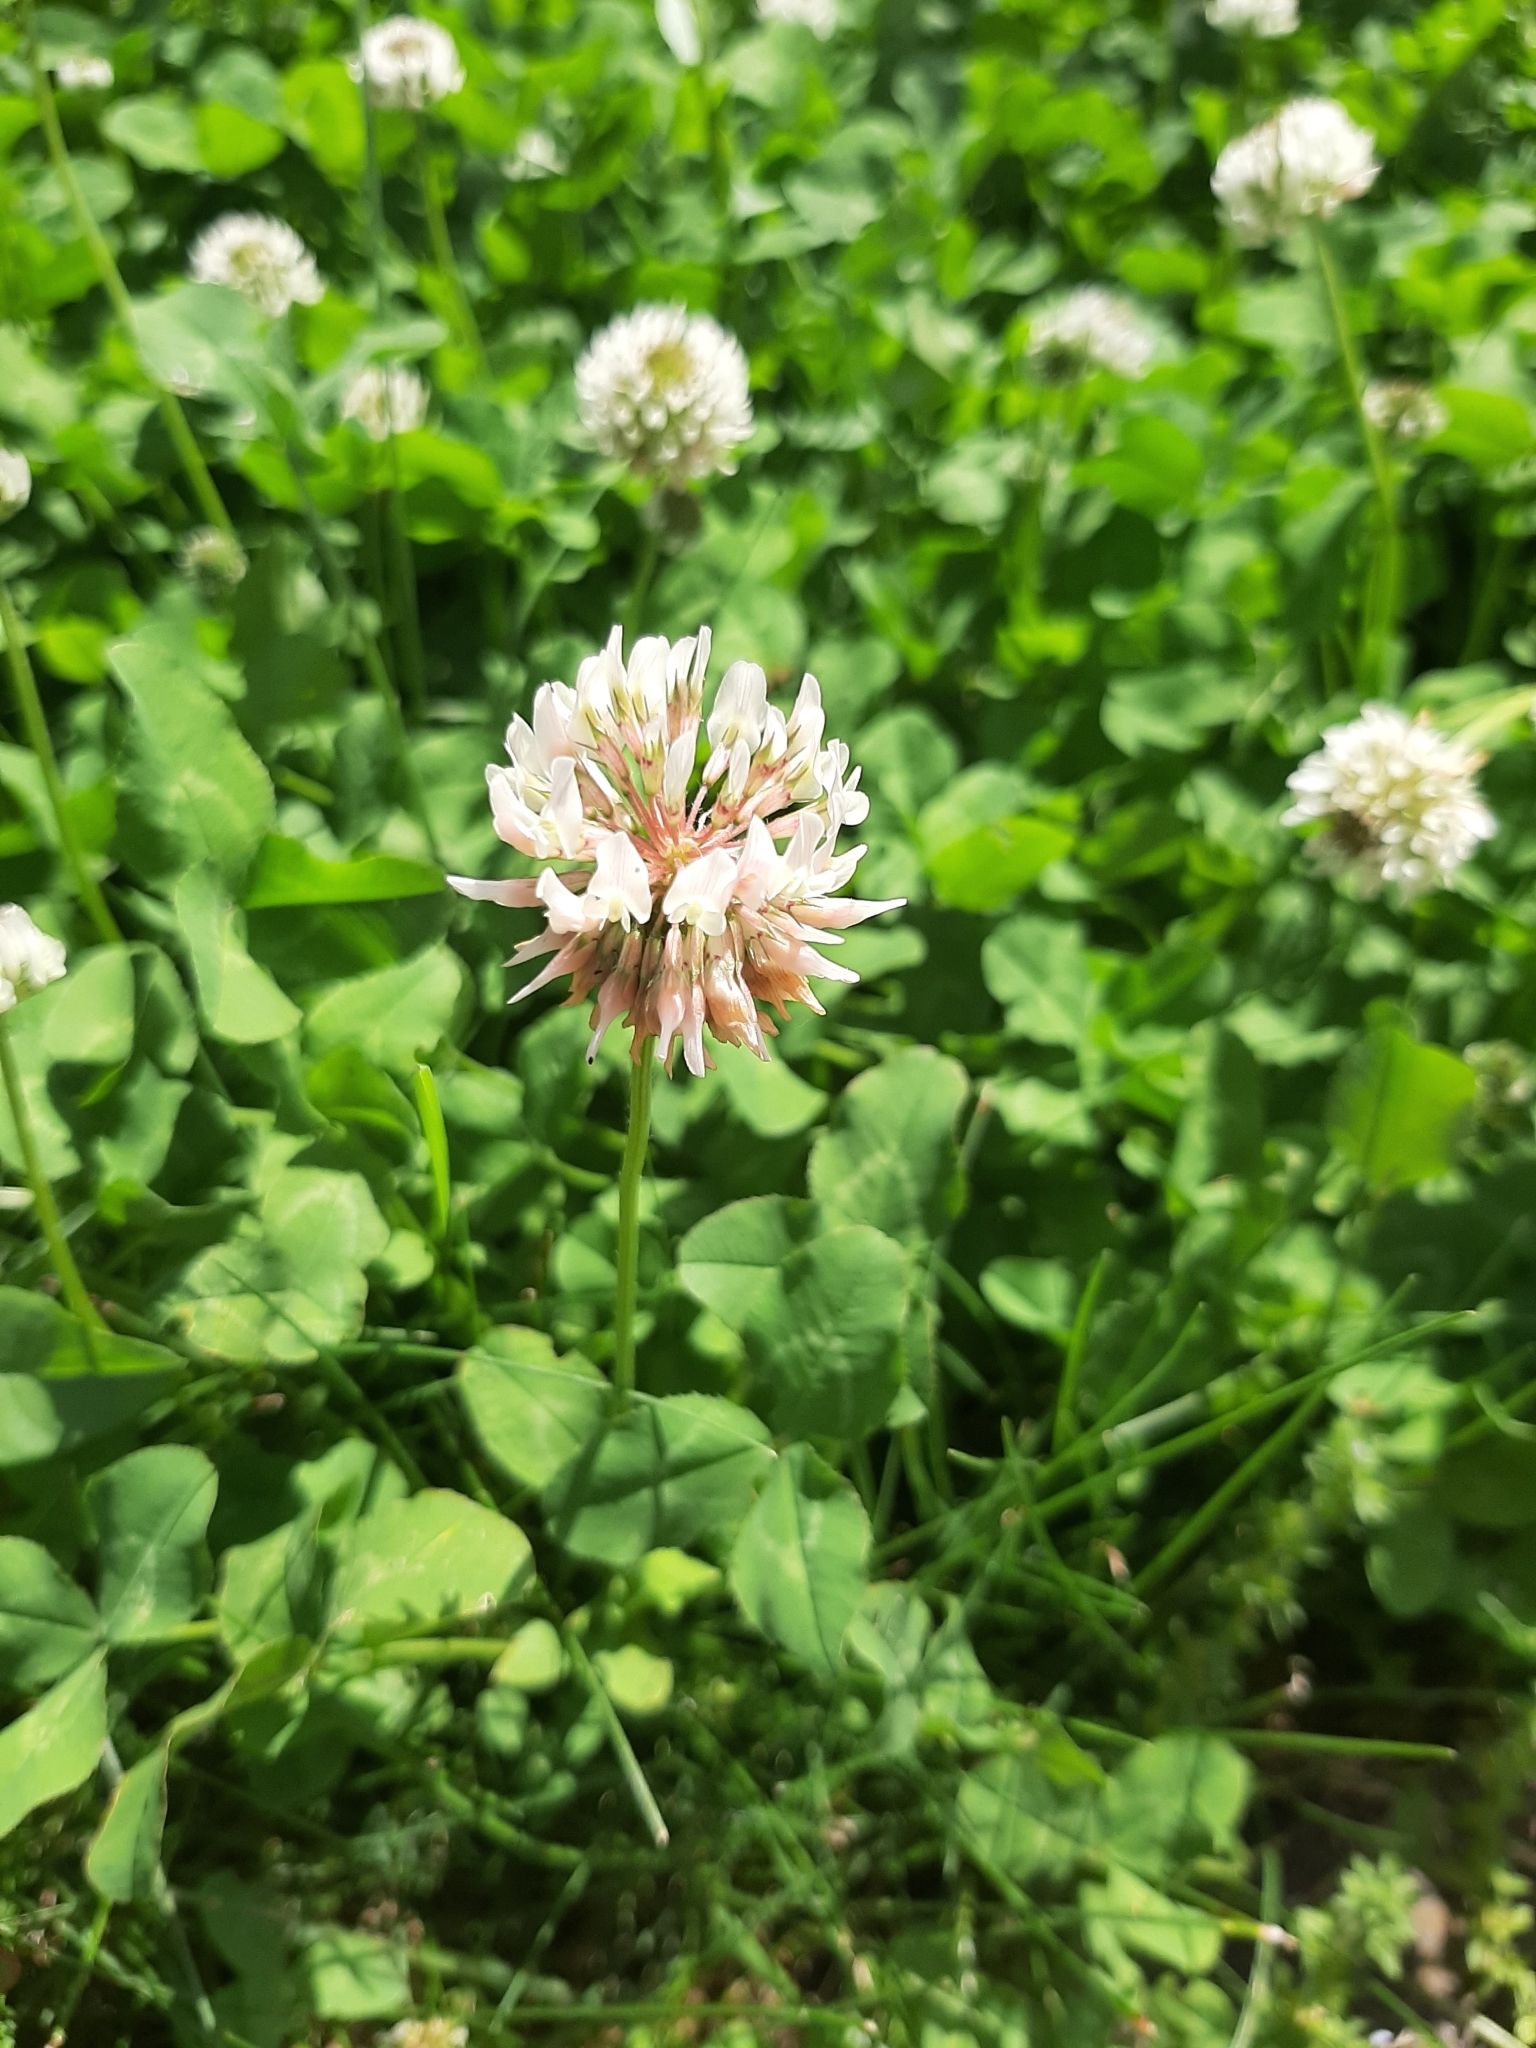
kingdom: Plantae
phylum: Tracheophyta
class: Magnoliopsida
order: Fabales
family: Fabaceae
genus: Trifolium
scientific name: Trifolium repens
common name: White clover
